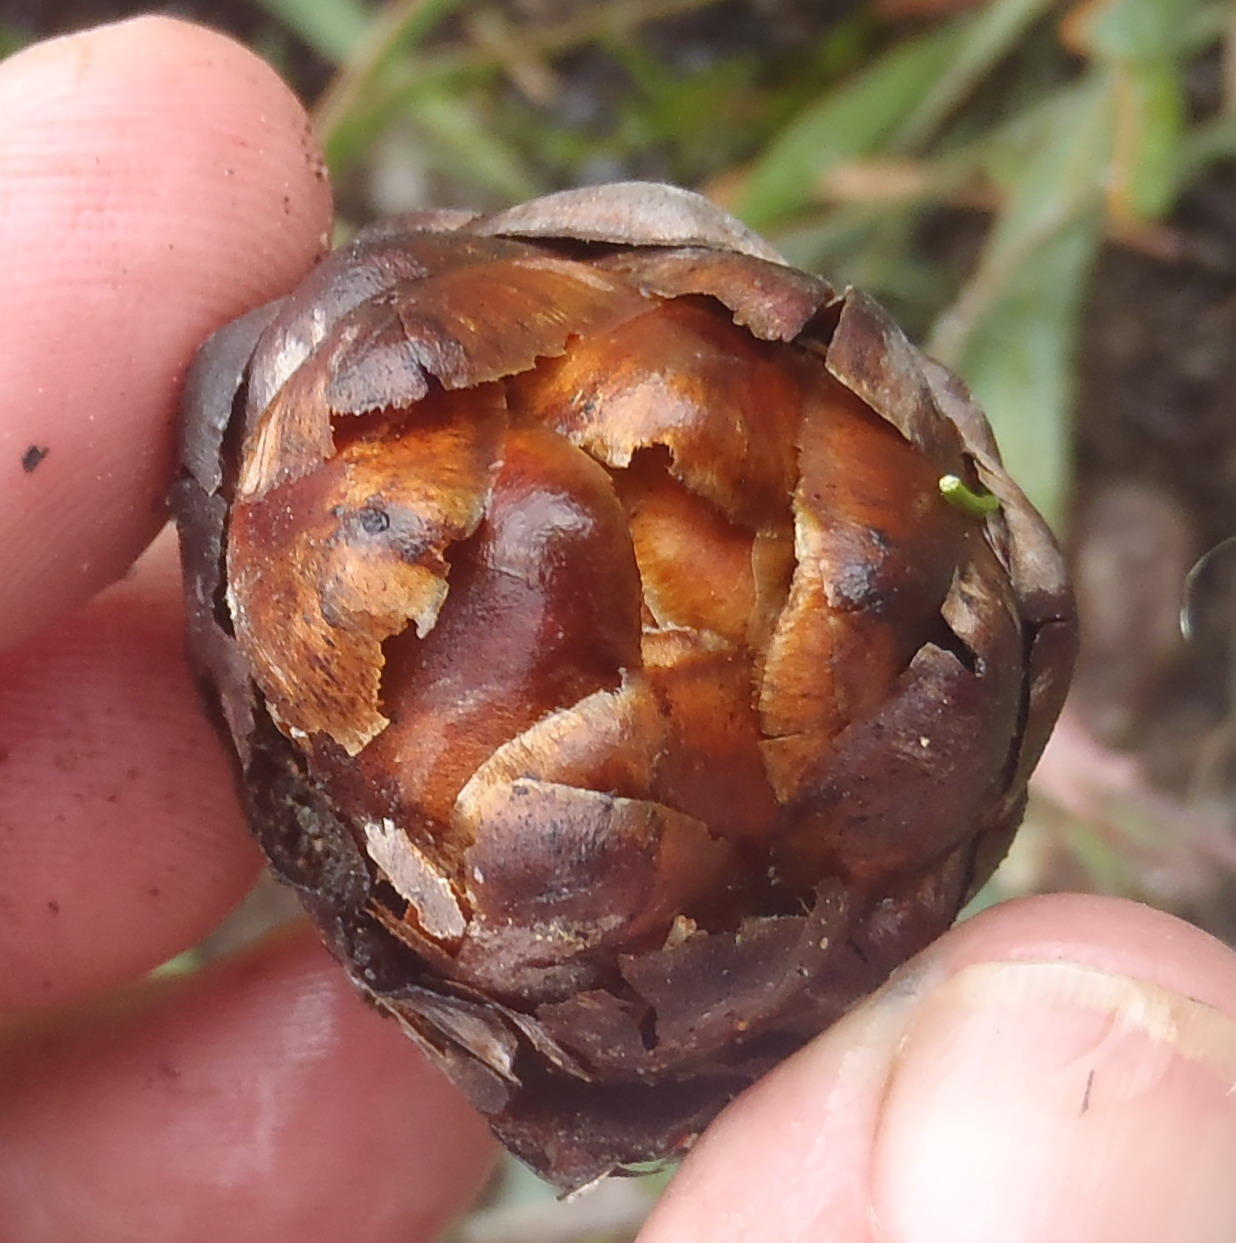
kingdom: Plantae
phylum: Tracheophyta
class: Magnoliopsida
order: Proteales
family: Proteaceae
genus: Protea
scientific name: Protea vogtsiae
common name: Kouga sugarbush
